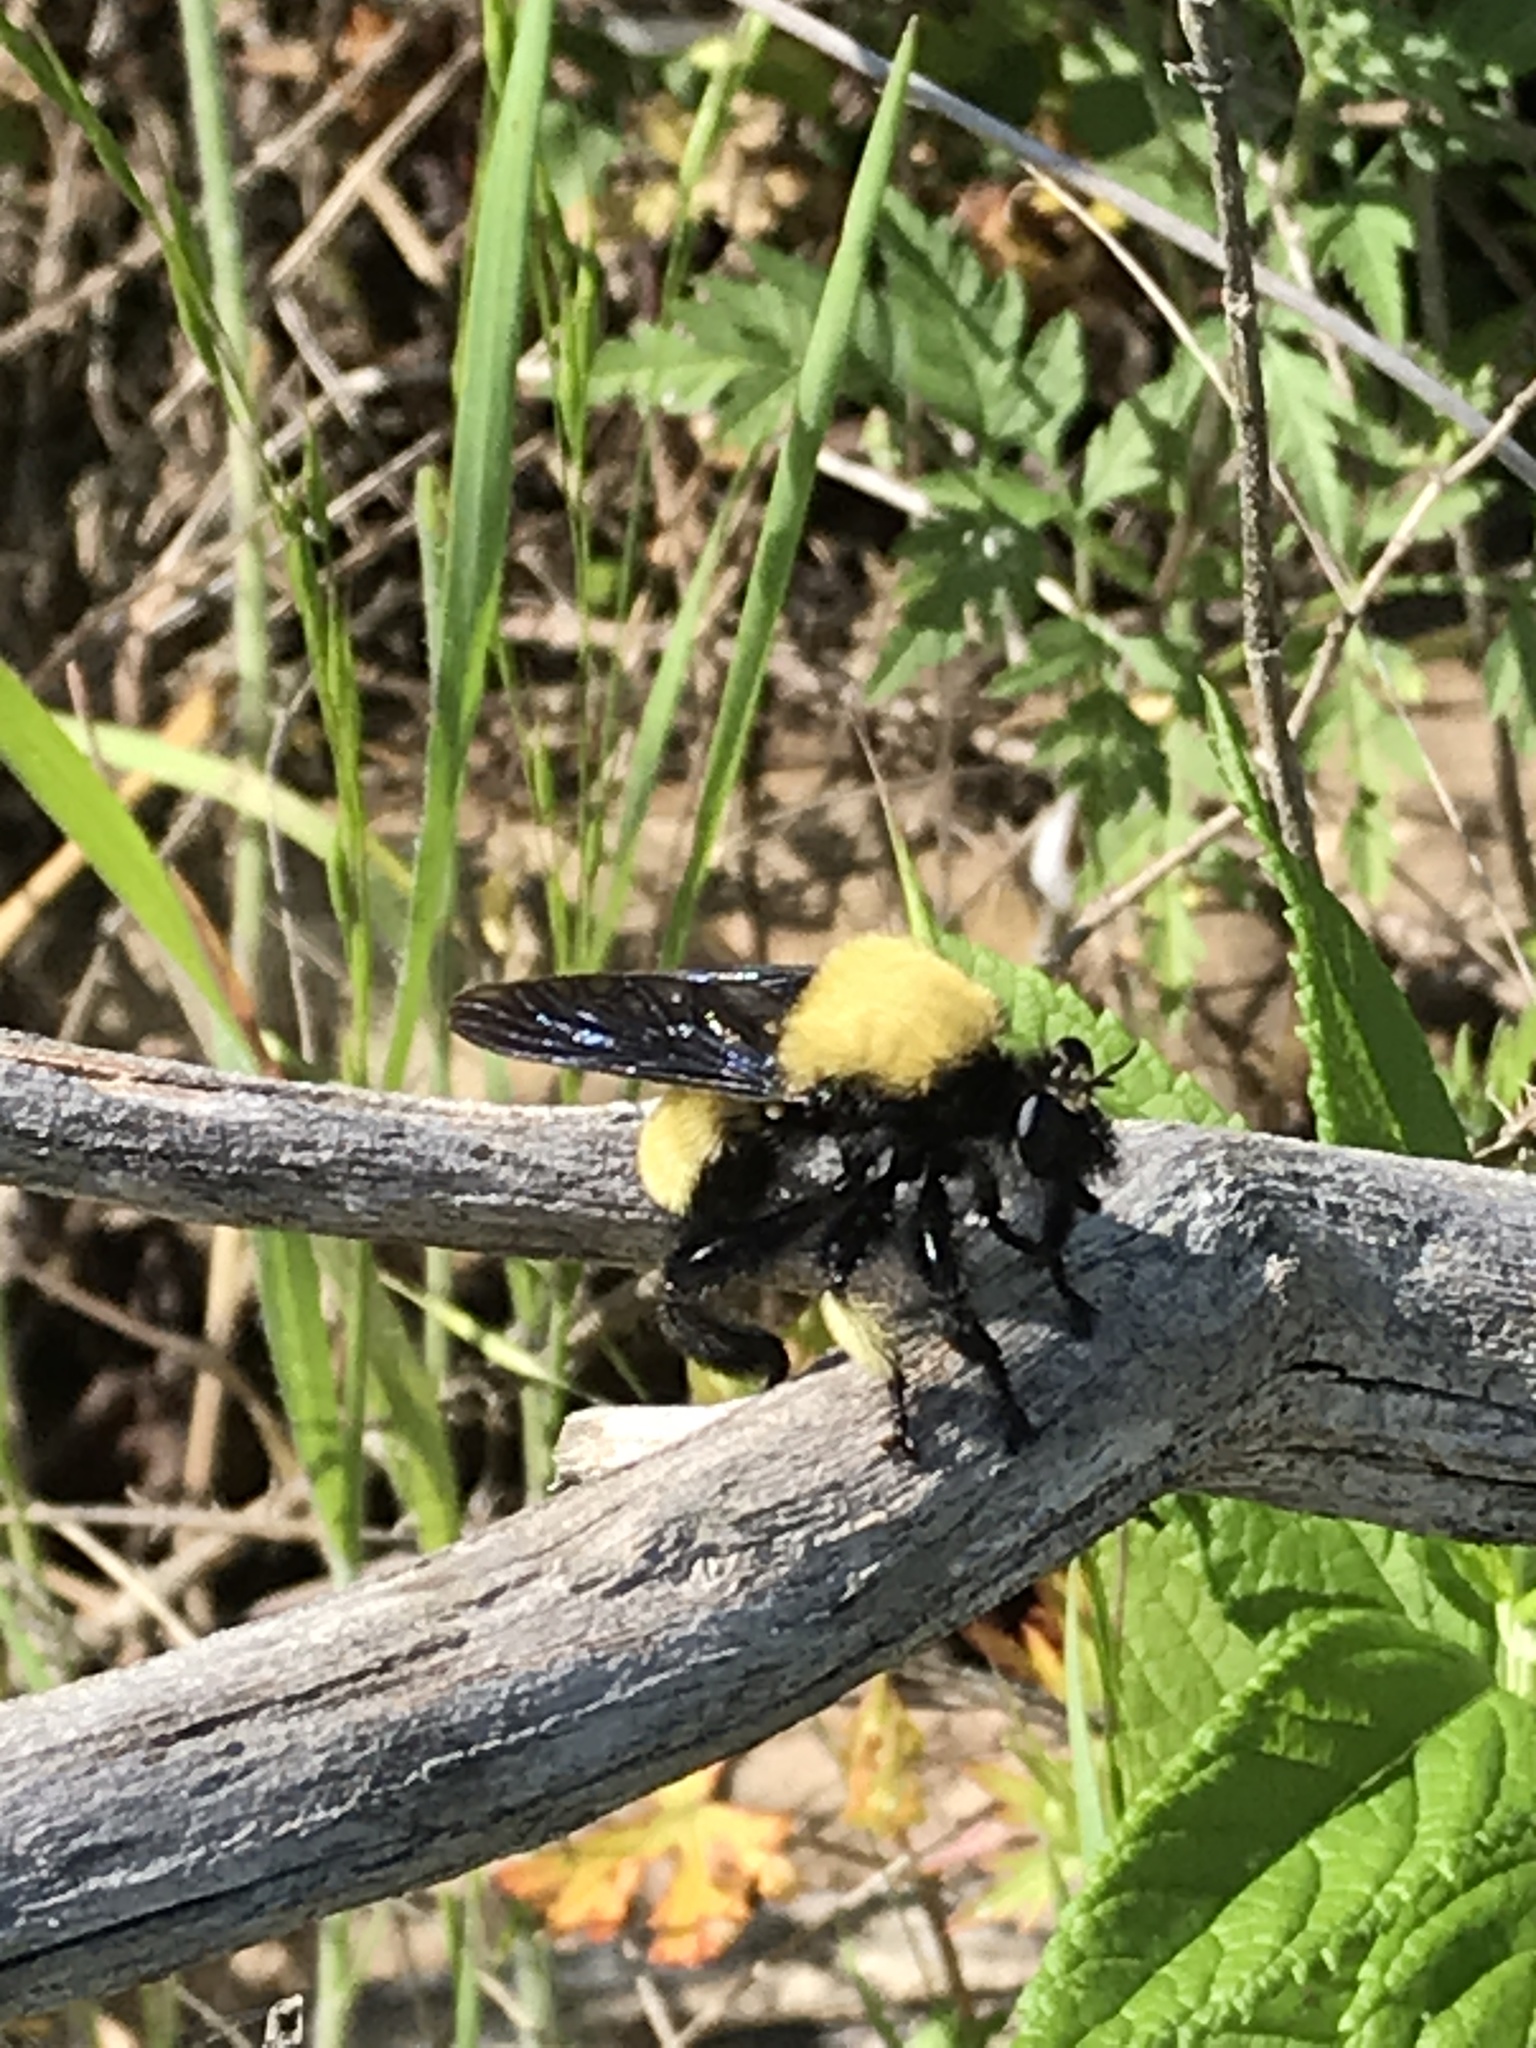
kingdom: Animalia
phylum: Arthropoda
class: Insecta
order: Diptera
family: Asilidae
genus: Laphria
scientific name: Laphria macquarti
